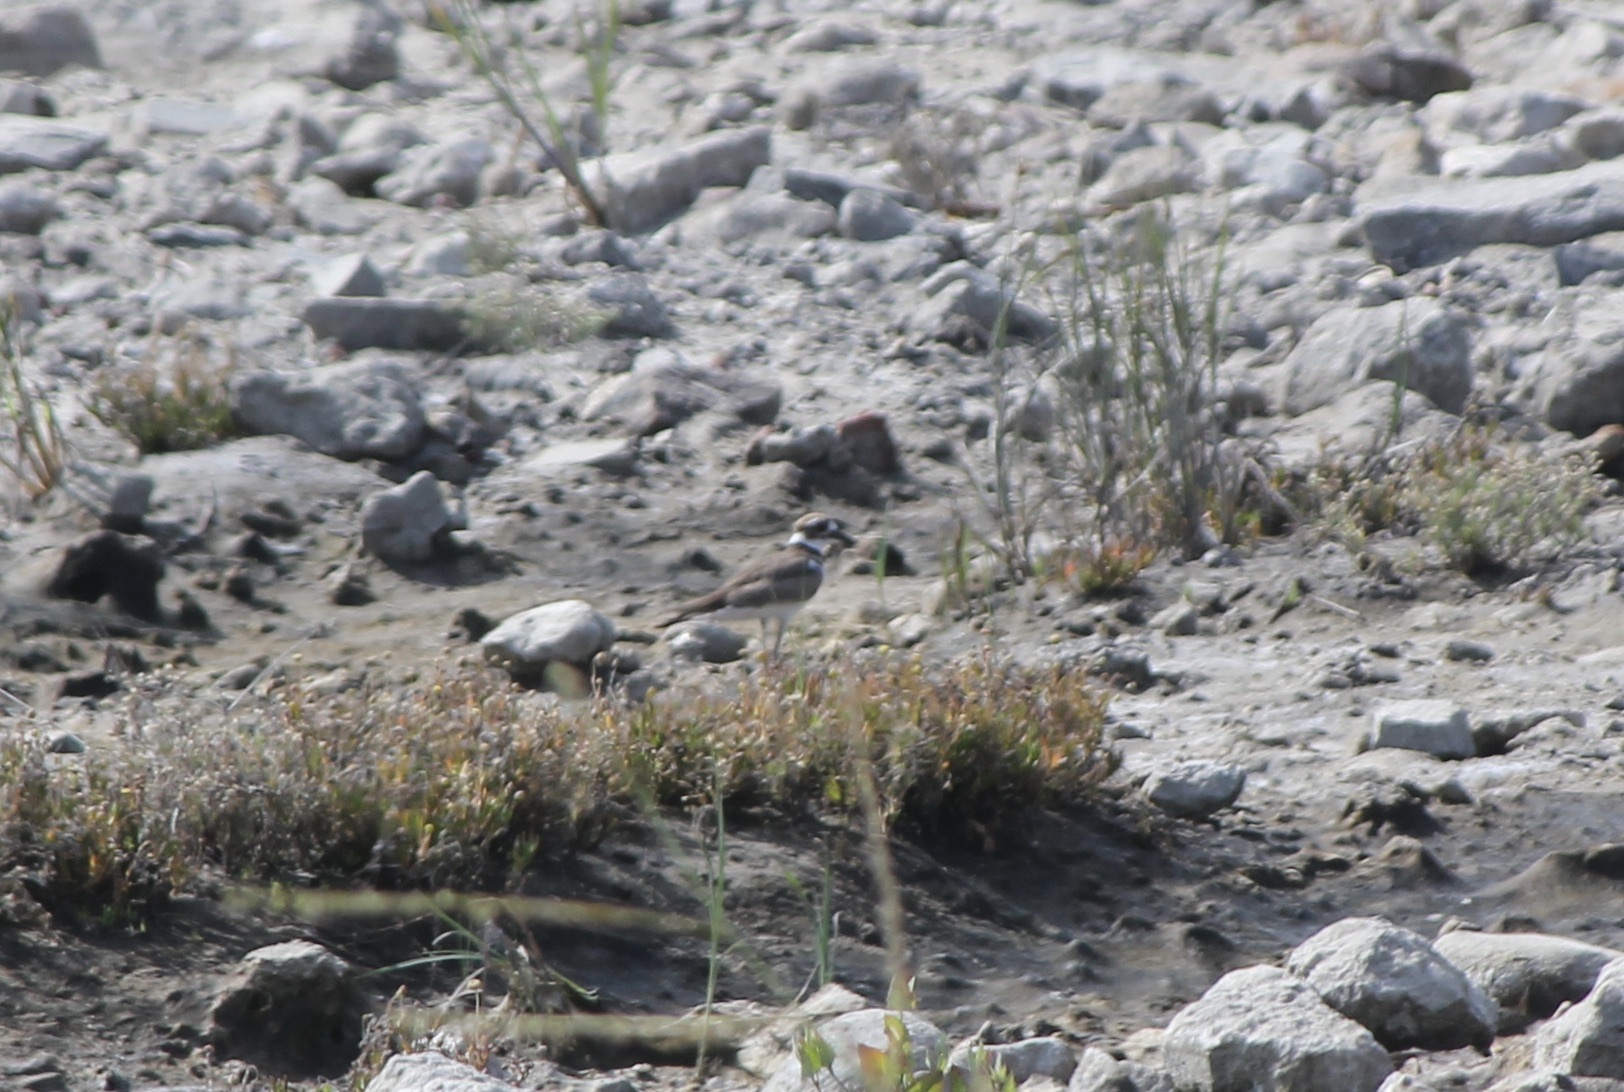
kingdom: Animalia
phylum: Chordata
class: Aves
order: Charadriiformes
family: Charadriidae
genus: Charadrius
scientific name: Charadrius vociferus
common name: Killdeer
